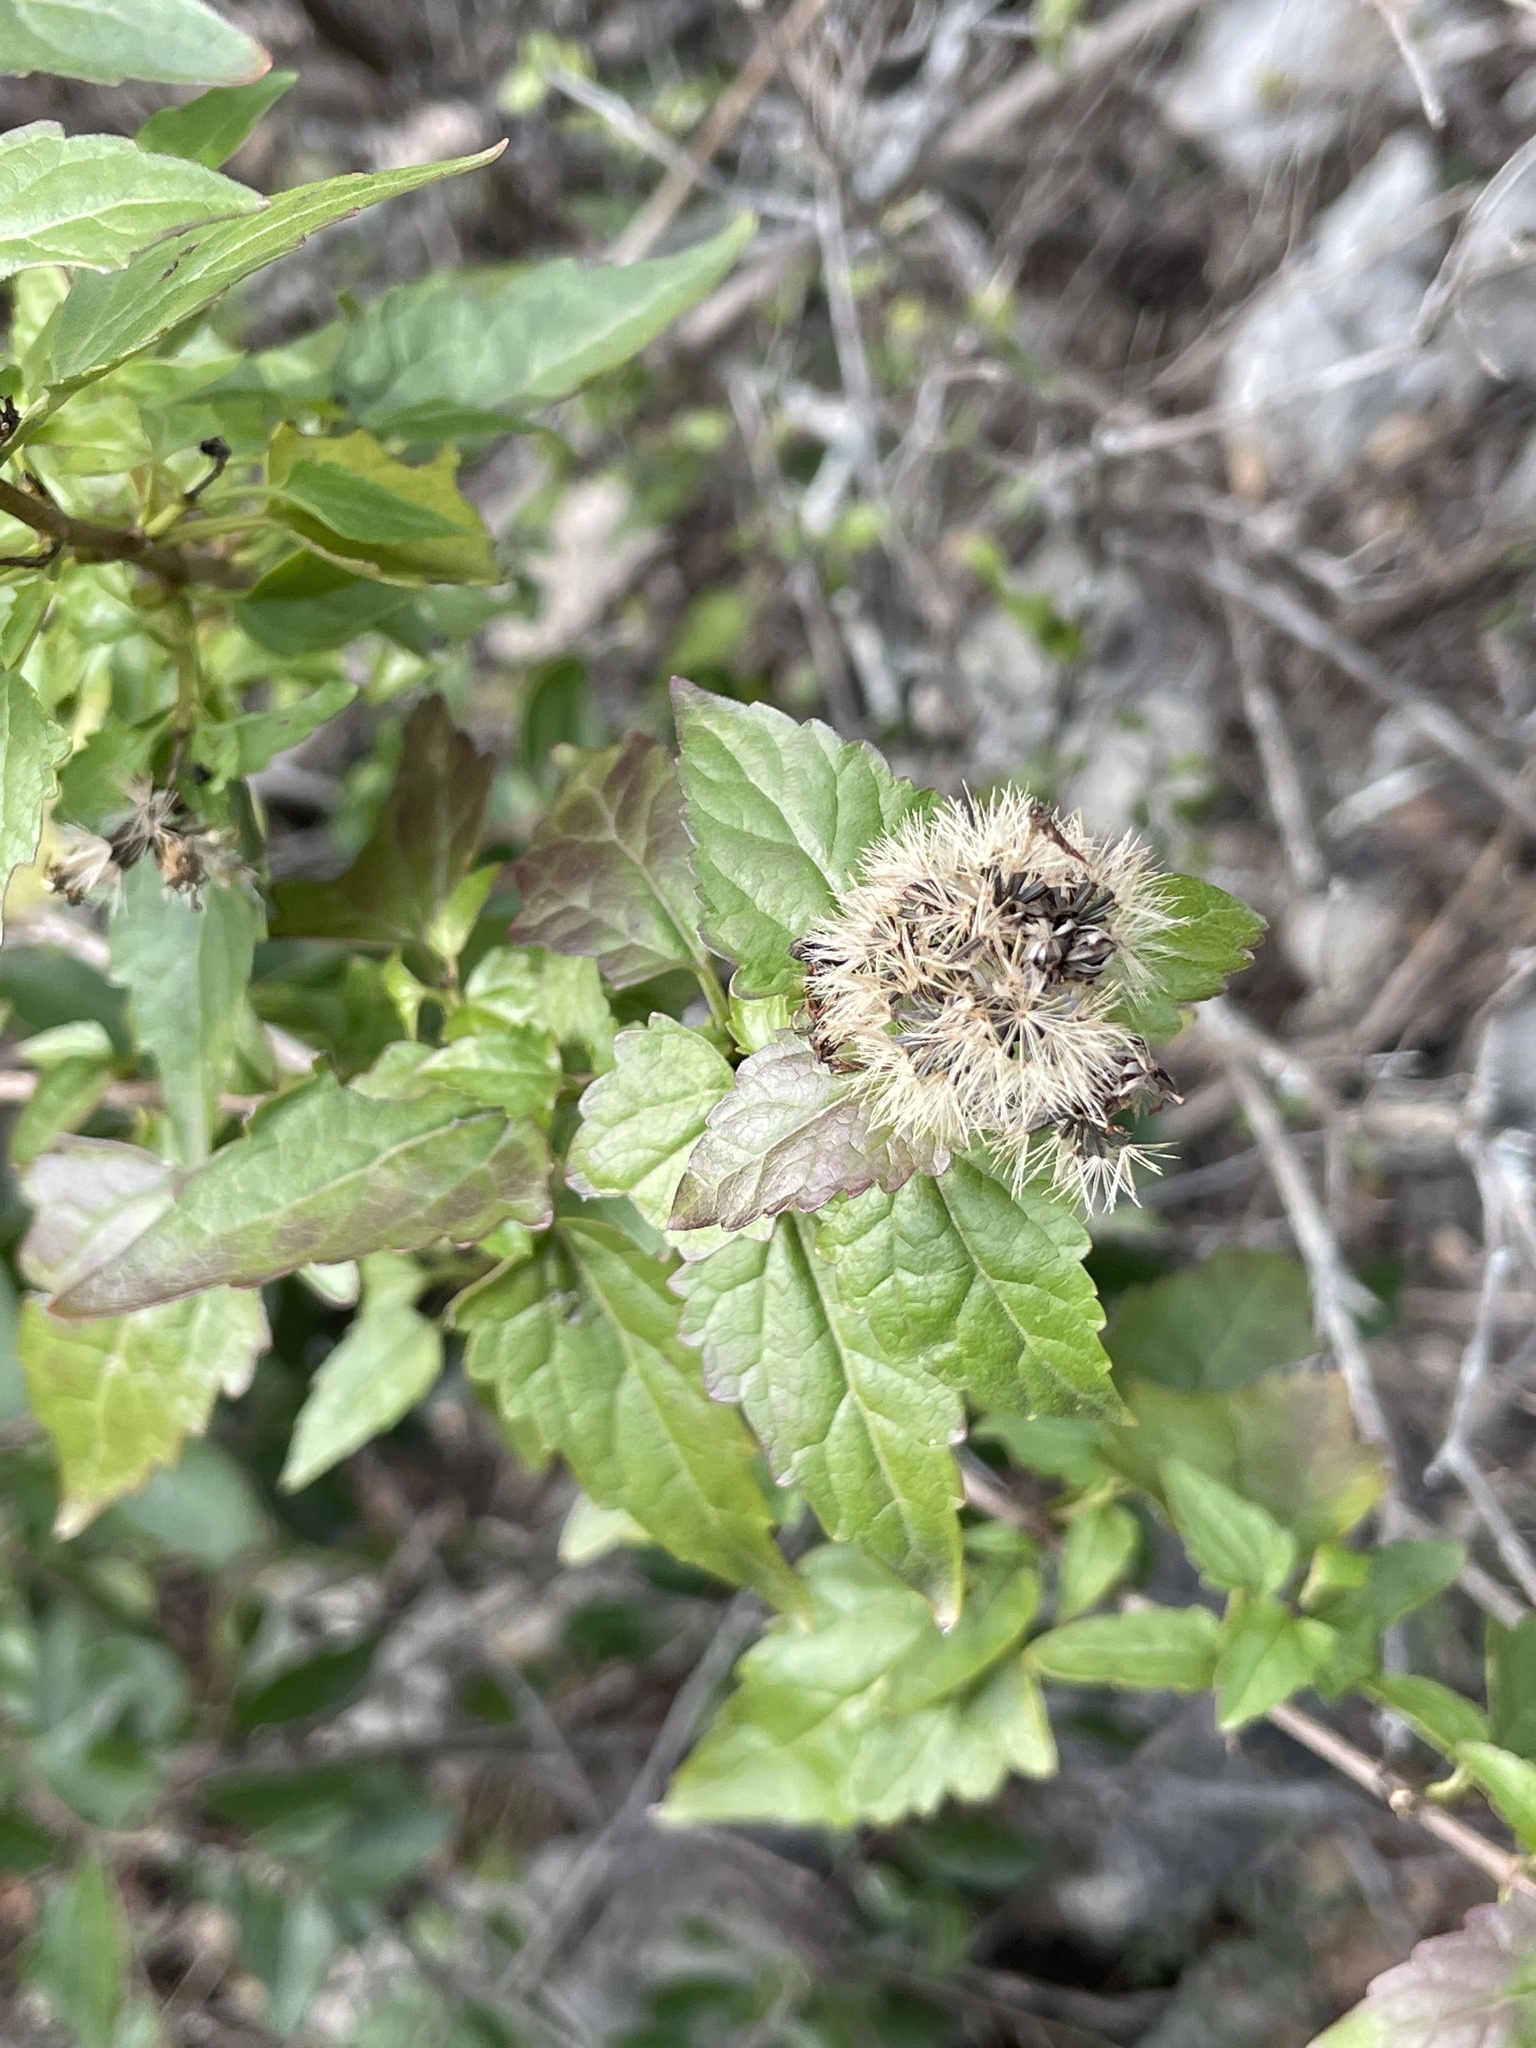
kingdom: Plantae
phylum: Tracheophyta
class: Magnoliopsida
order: Asterales
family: Asteraceae
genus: Ageratina
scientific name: Ageratina havanensis
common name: Havana snakeroot
